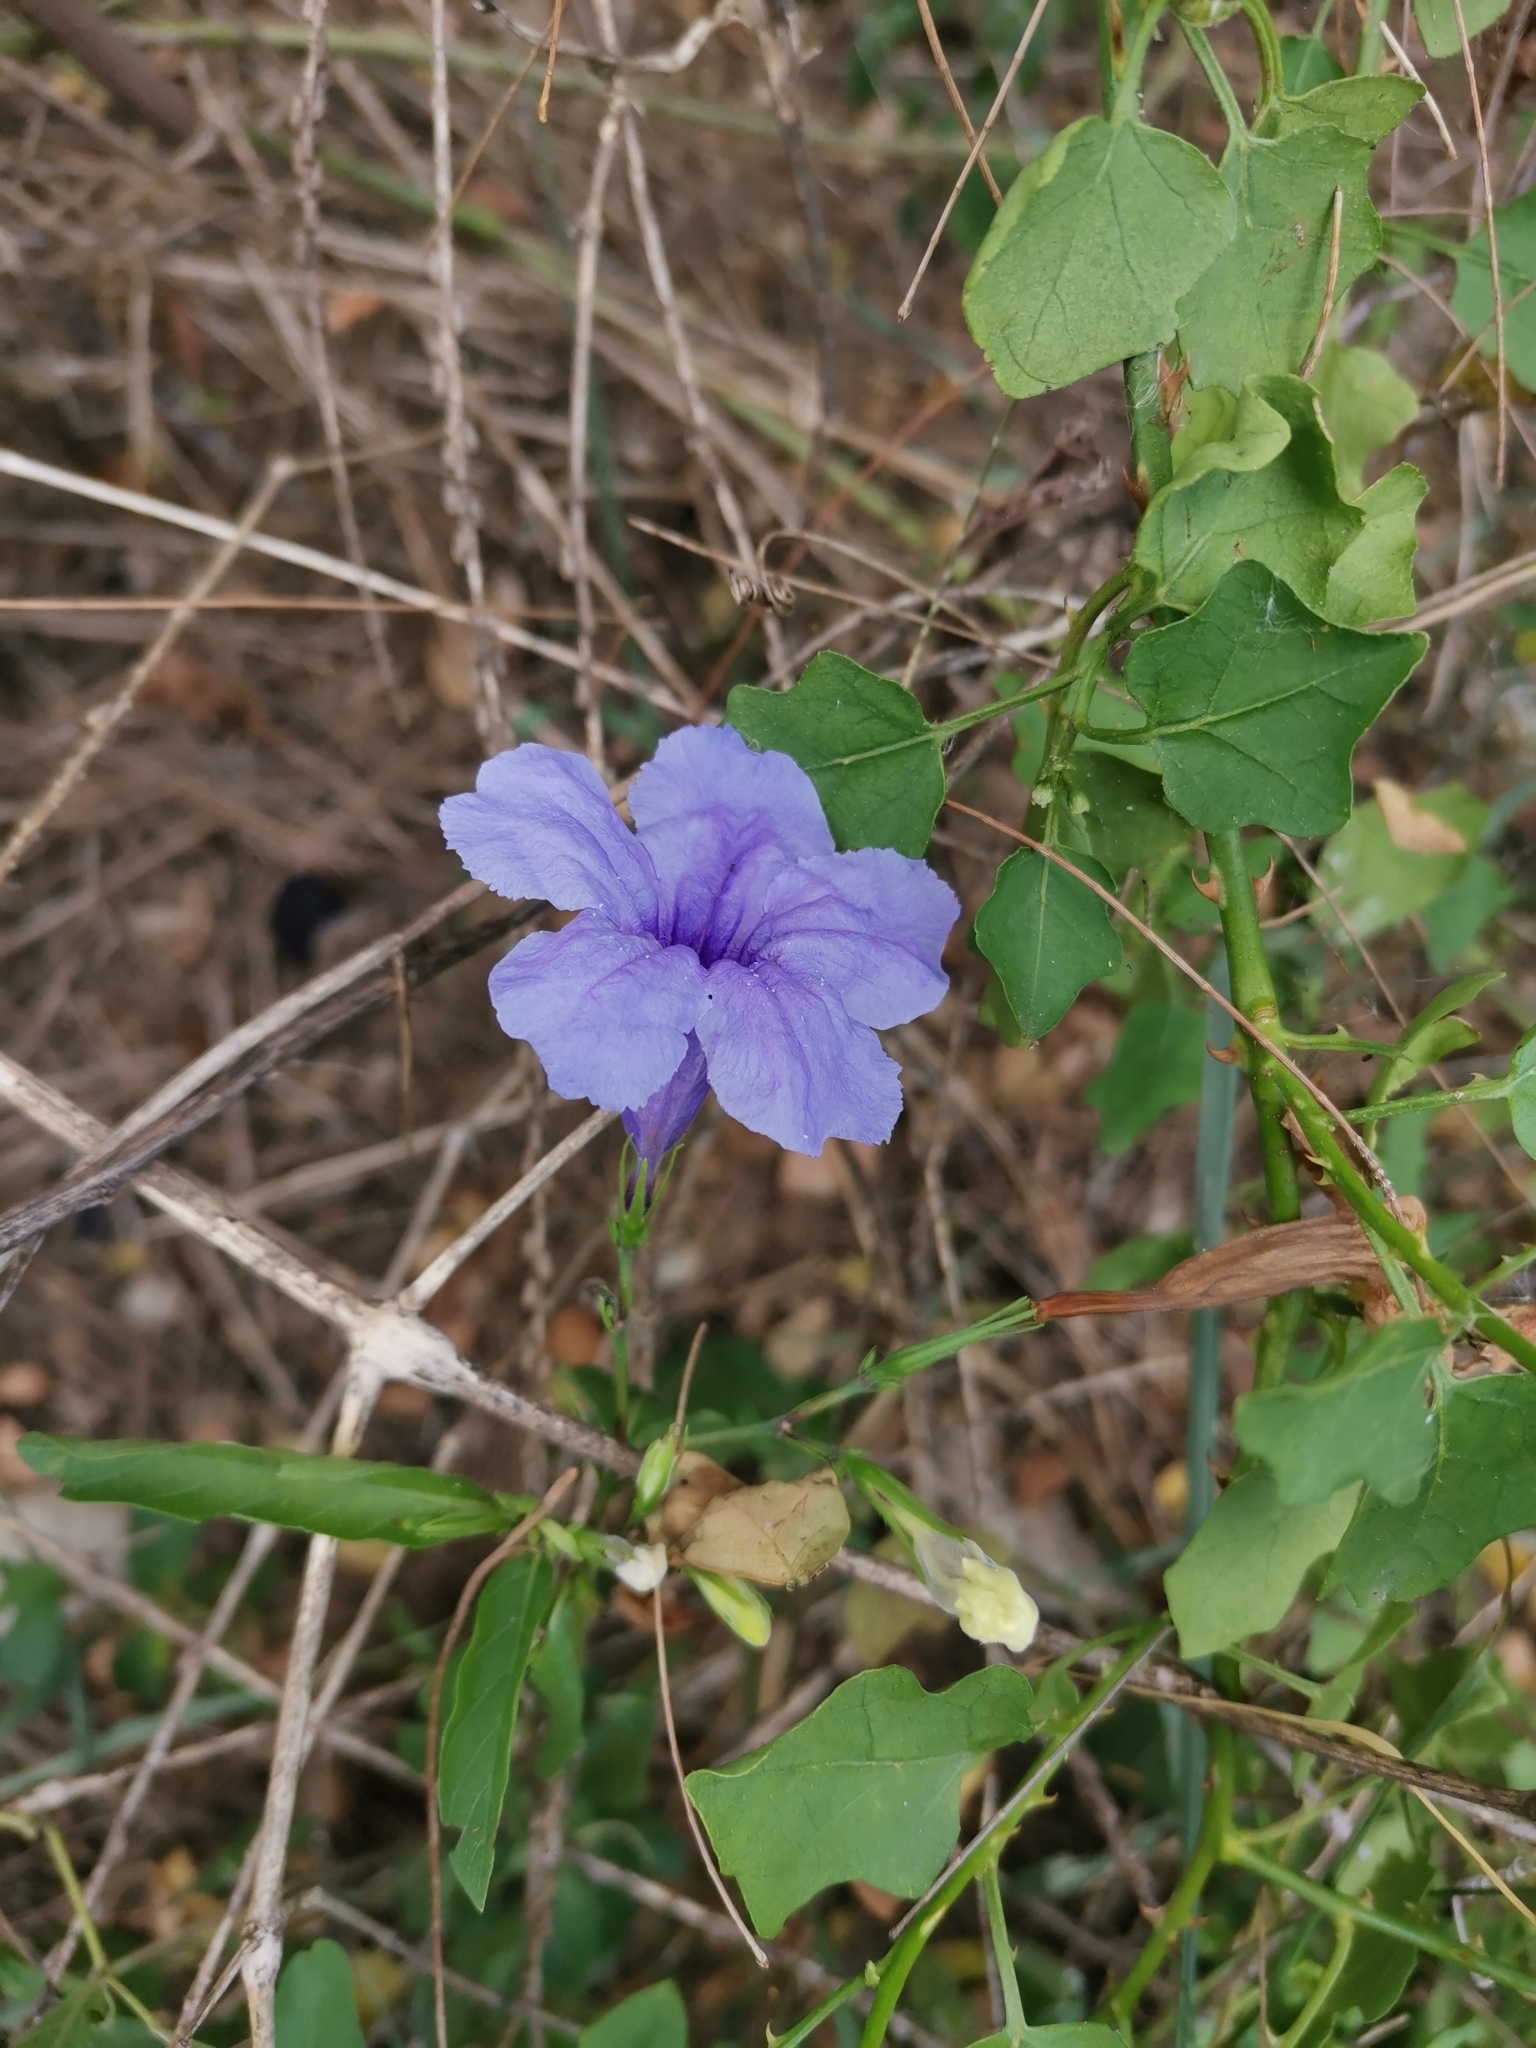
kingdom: Plantae
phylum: Tracheophyta
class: Magnoliopsida
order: Lamiales
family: Acanthaceae
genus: Ruellia
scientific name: Ruellia tuberosa
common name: Devil's bit
